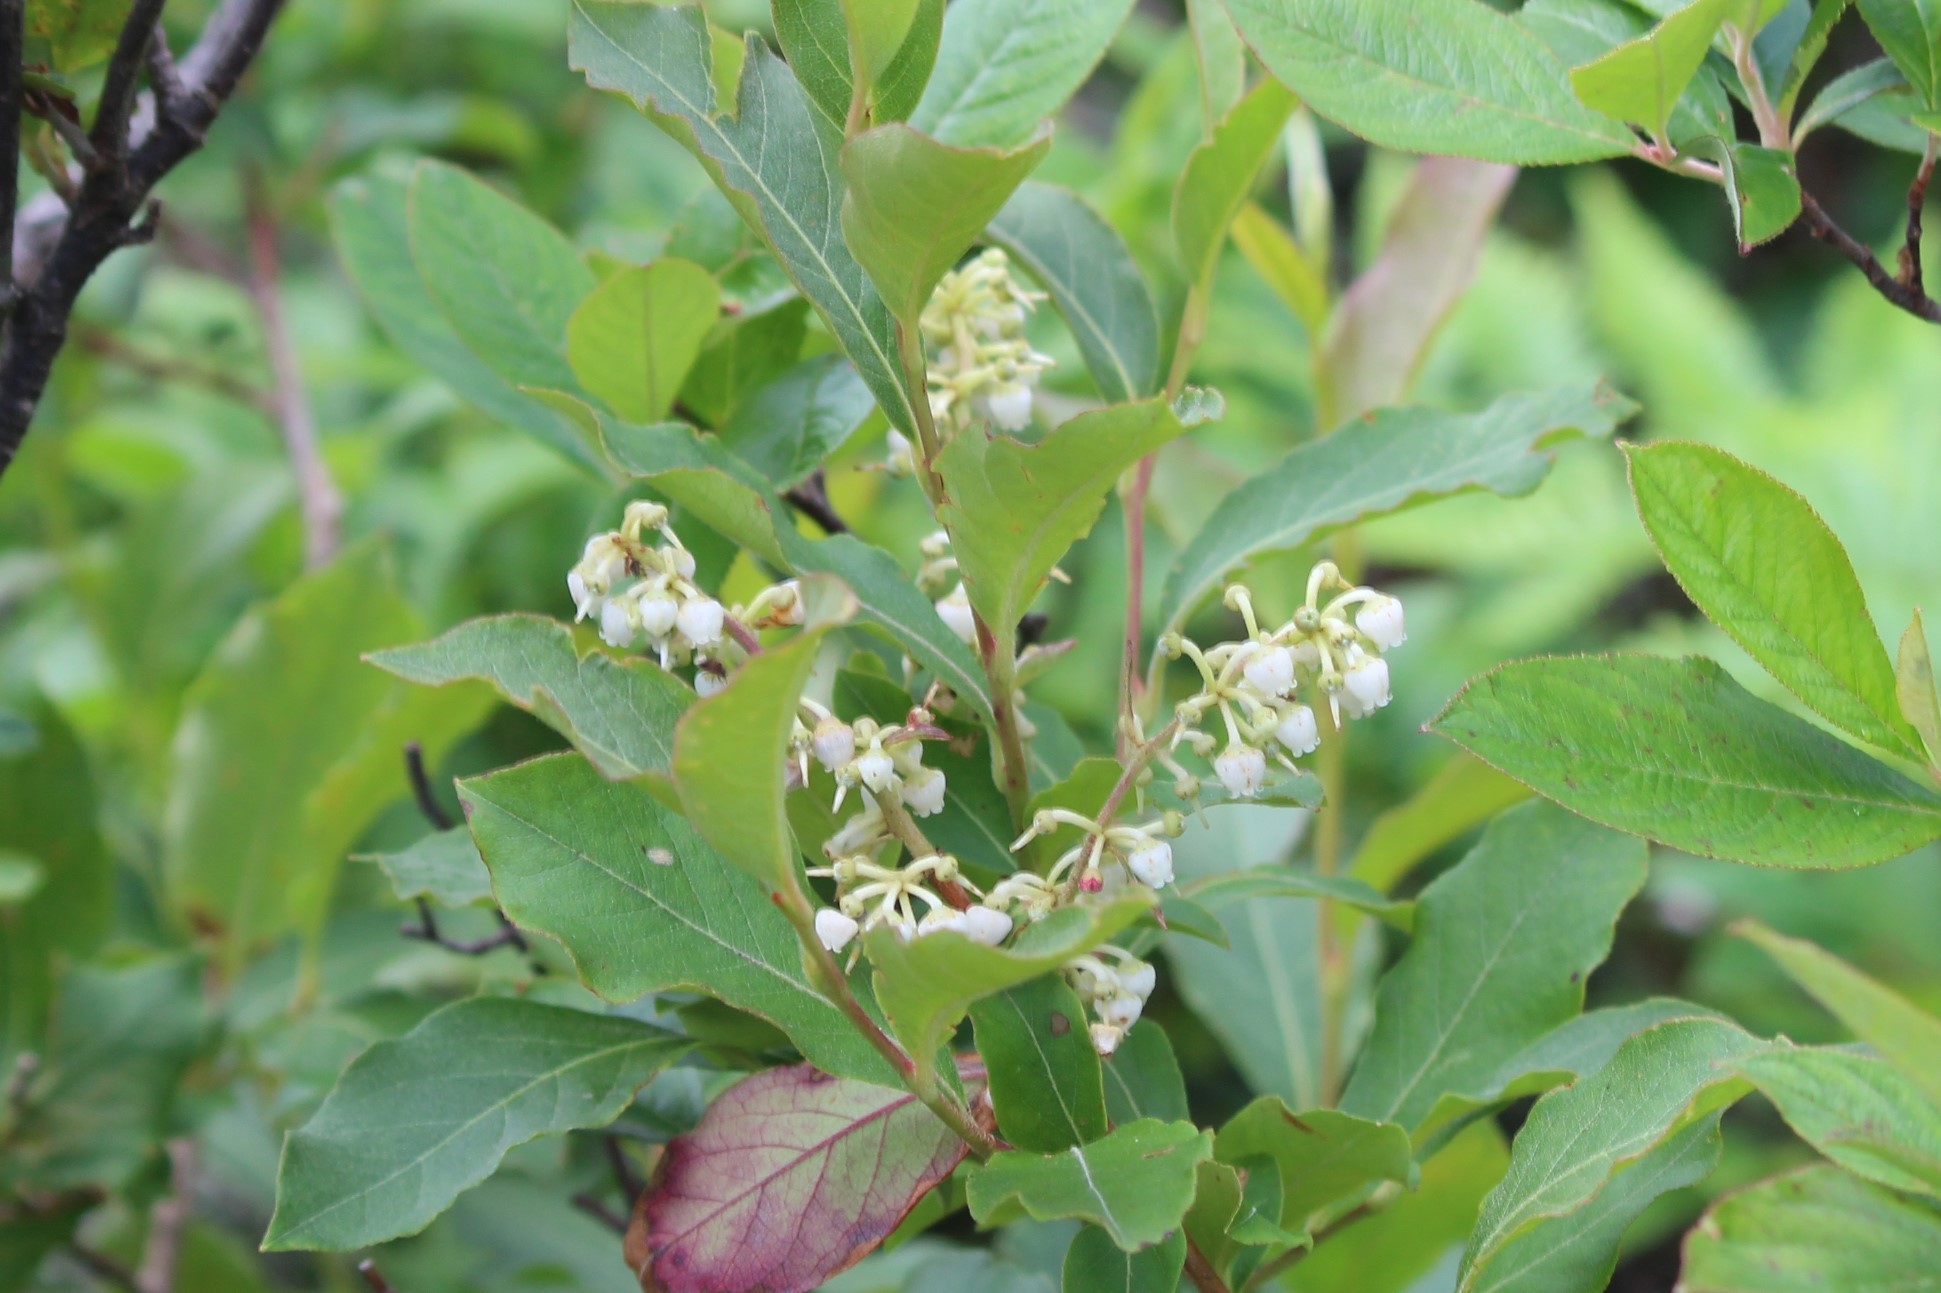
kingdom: Plantae
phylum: Tracheophyta
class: Magnoliopsida
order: Ericales
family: Ericaceae
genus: Lyonia
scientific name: Lyonia ligustrina
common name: Maleberry
